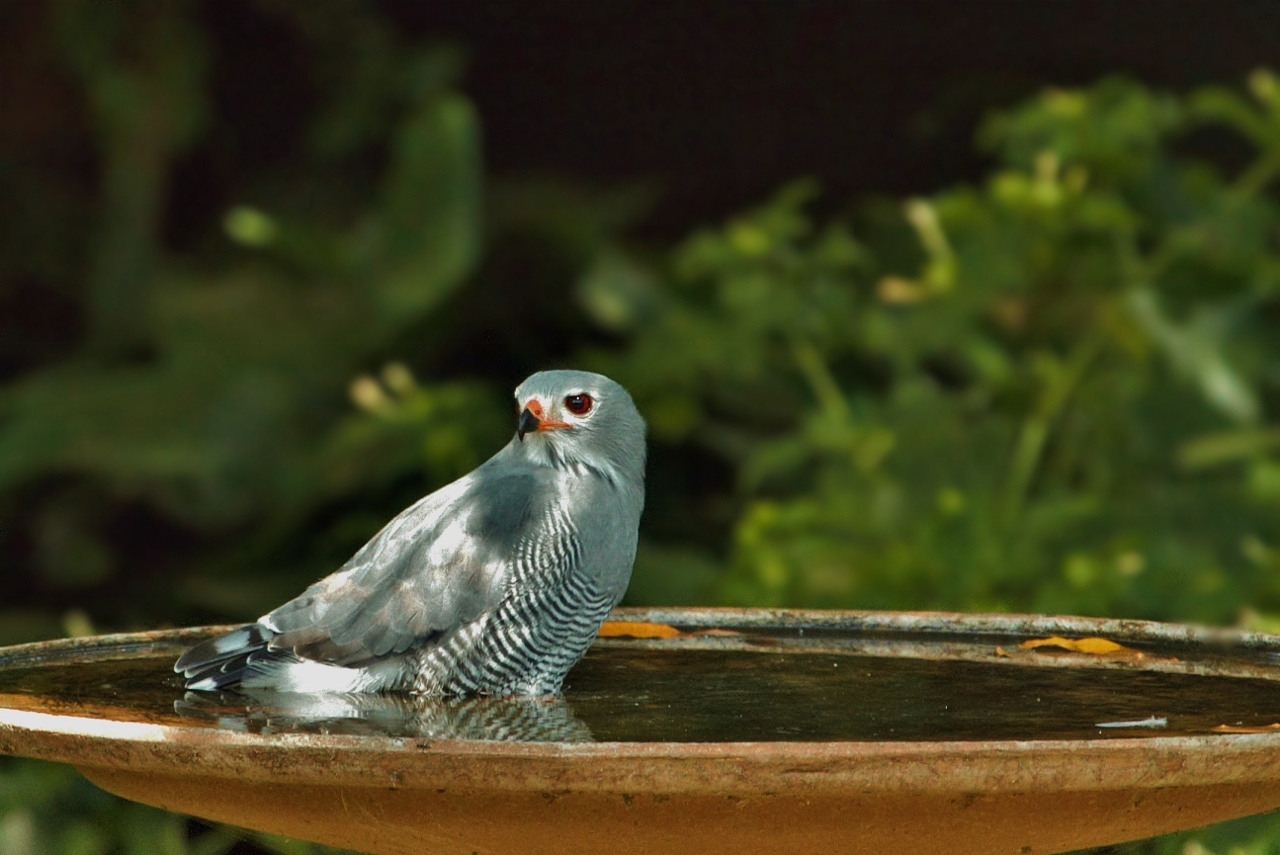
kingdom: Animalia
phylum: Chordata
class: Aves
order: Accipitriformes
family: Accipitridae
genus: Kaupifalco
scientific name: Kaupifalco monogrammicus
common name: Lizard buzzard
